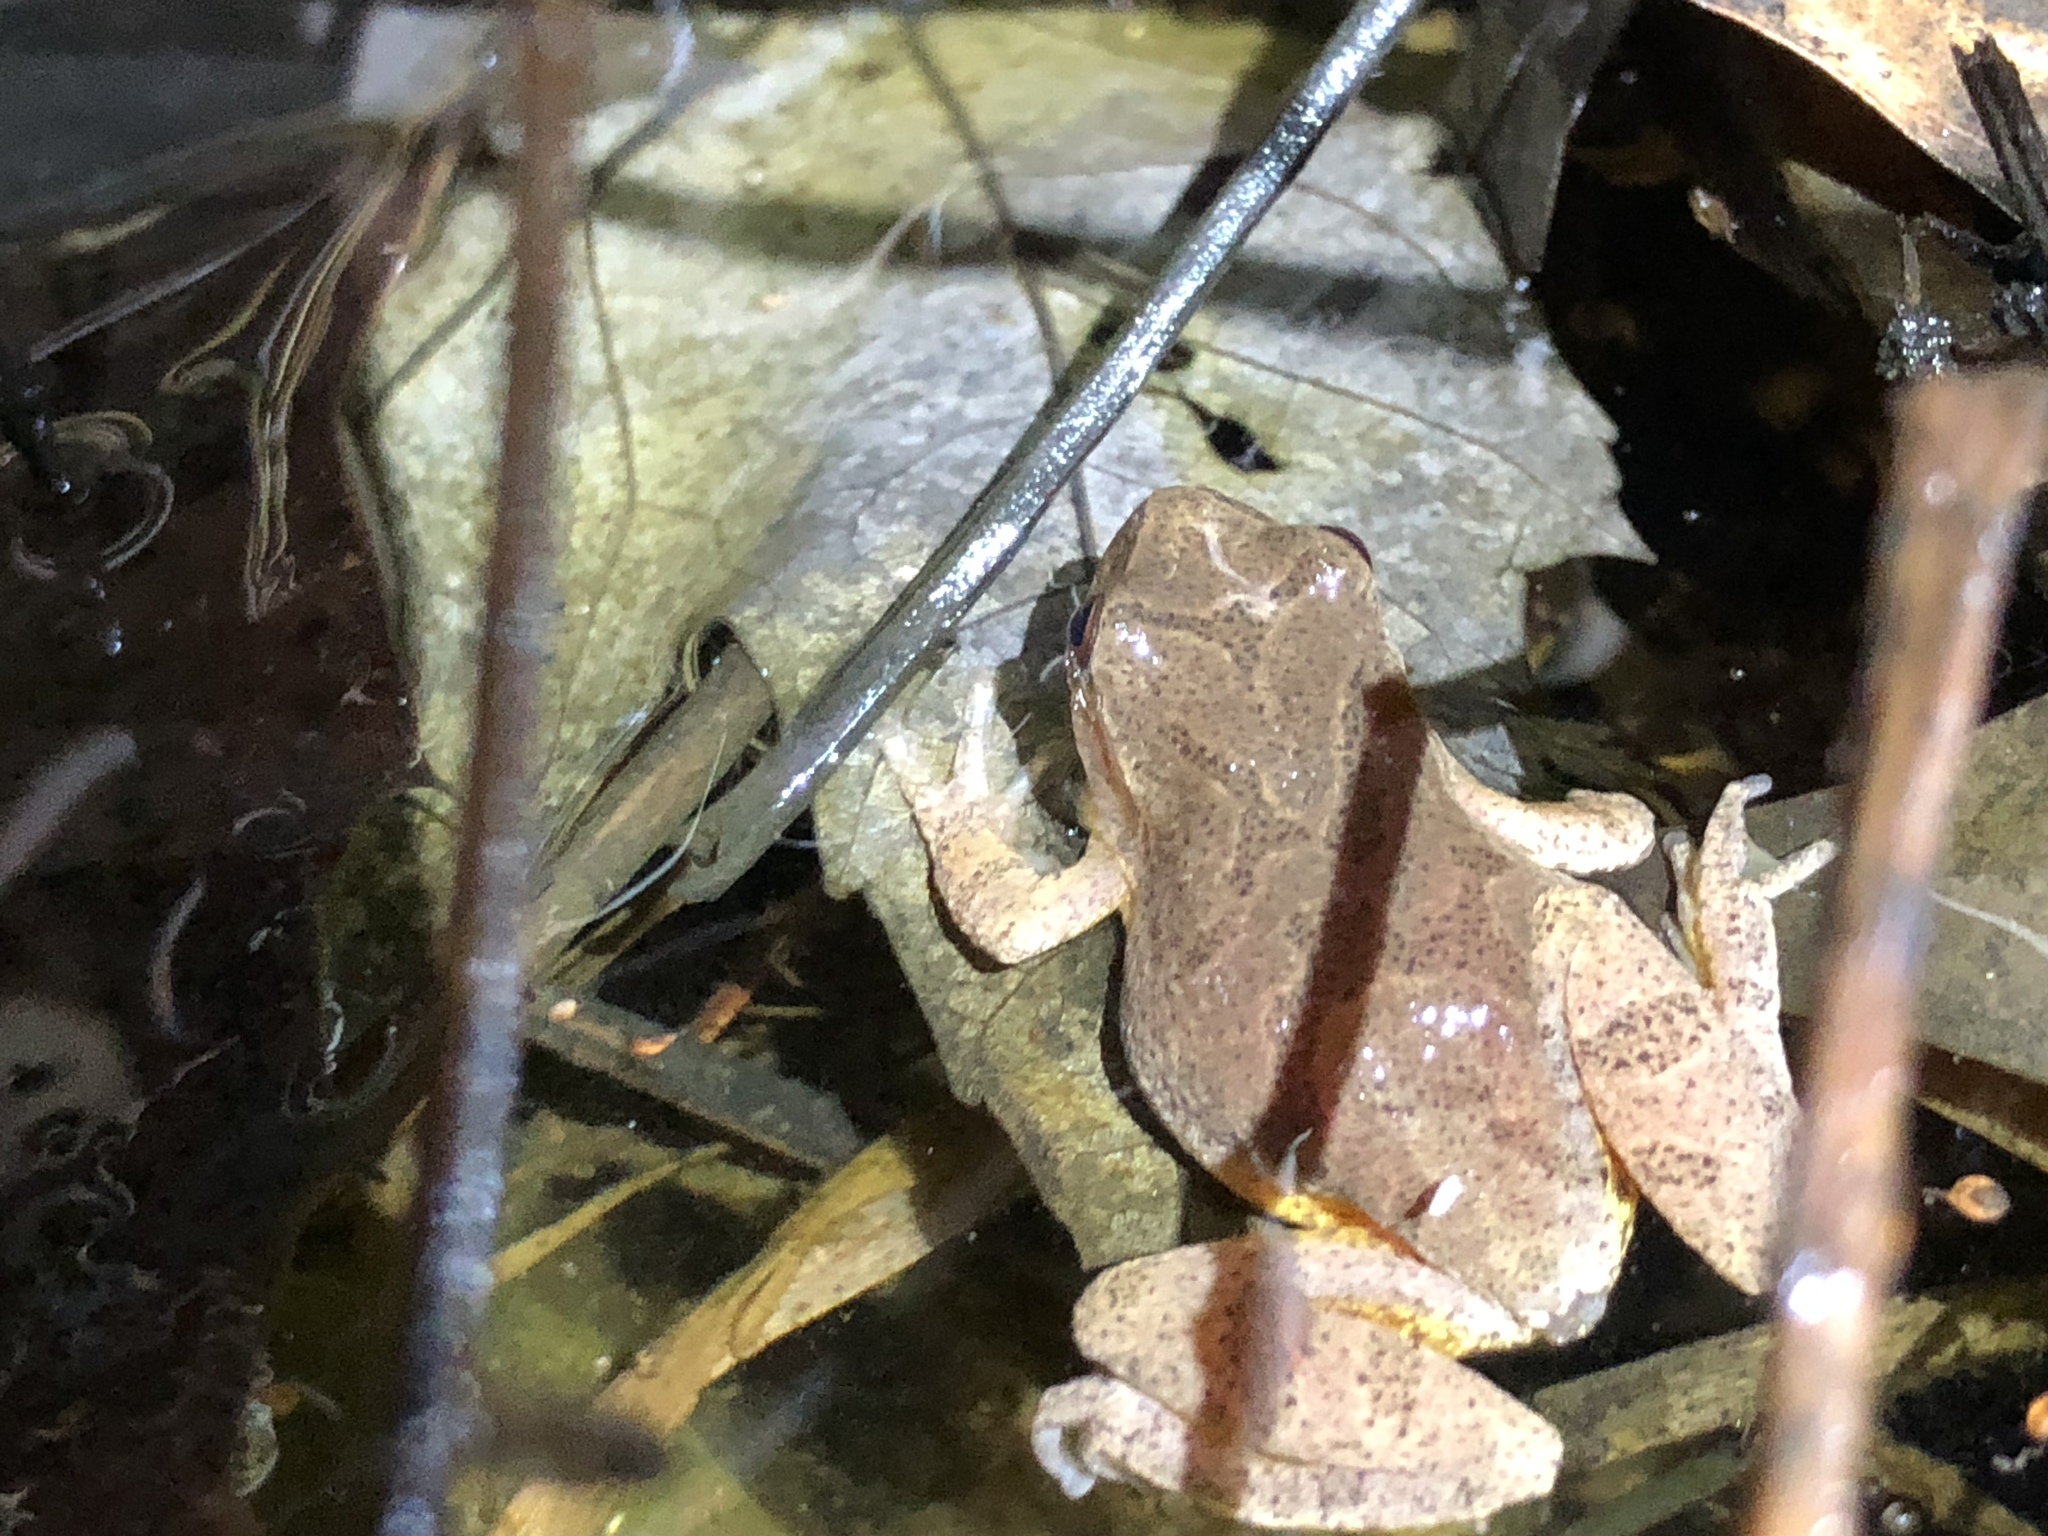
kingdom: Animalia
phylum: Chordata
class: Amphibia
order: Anura
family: Hylidae
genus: Pseudacris
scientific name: Pseudacris crucifer
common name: Spring peeper
